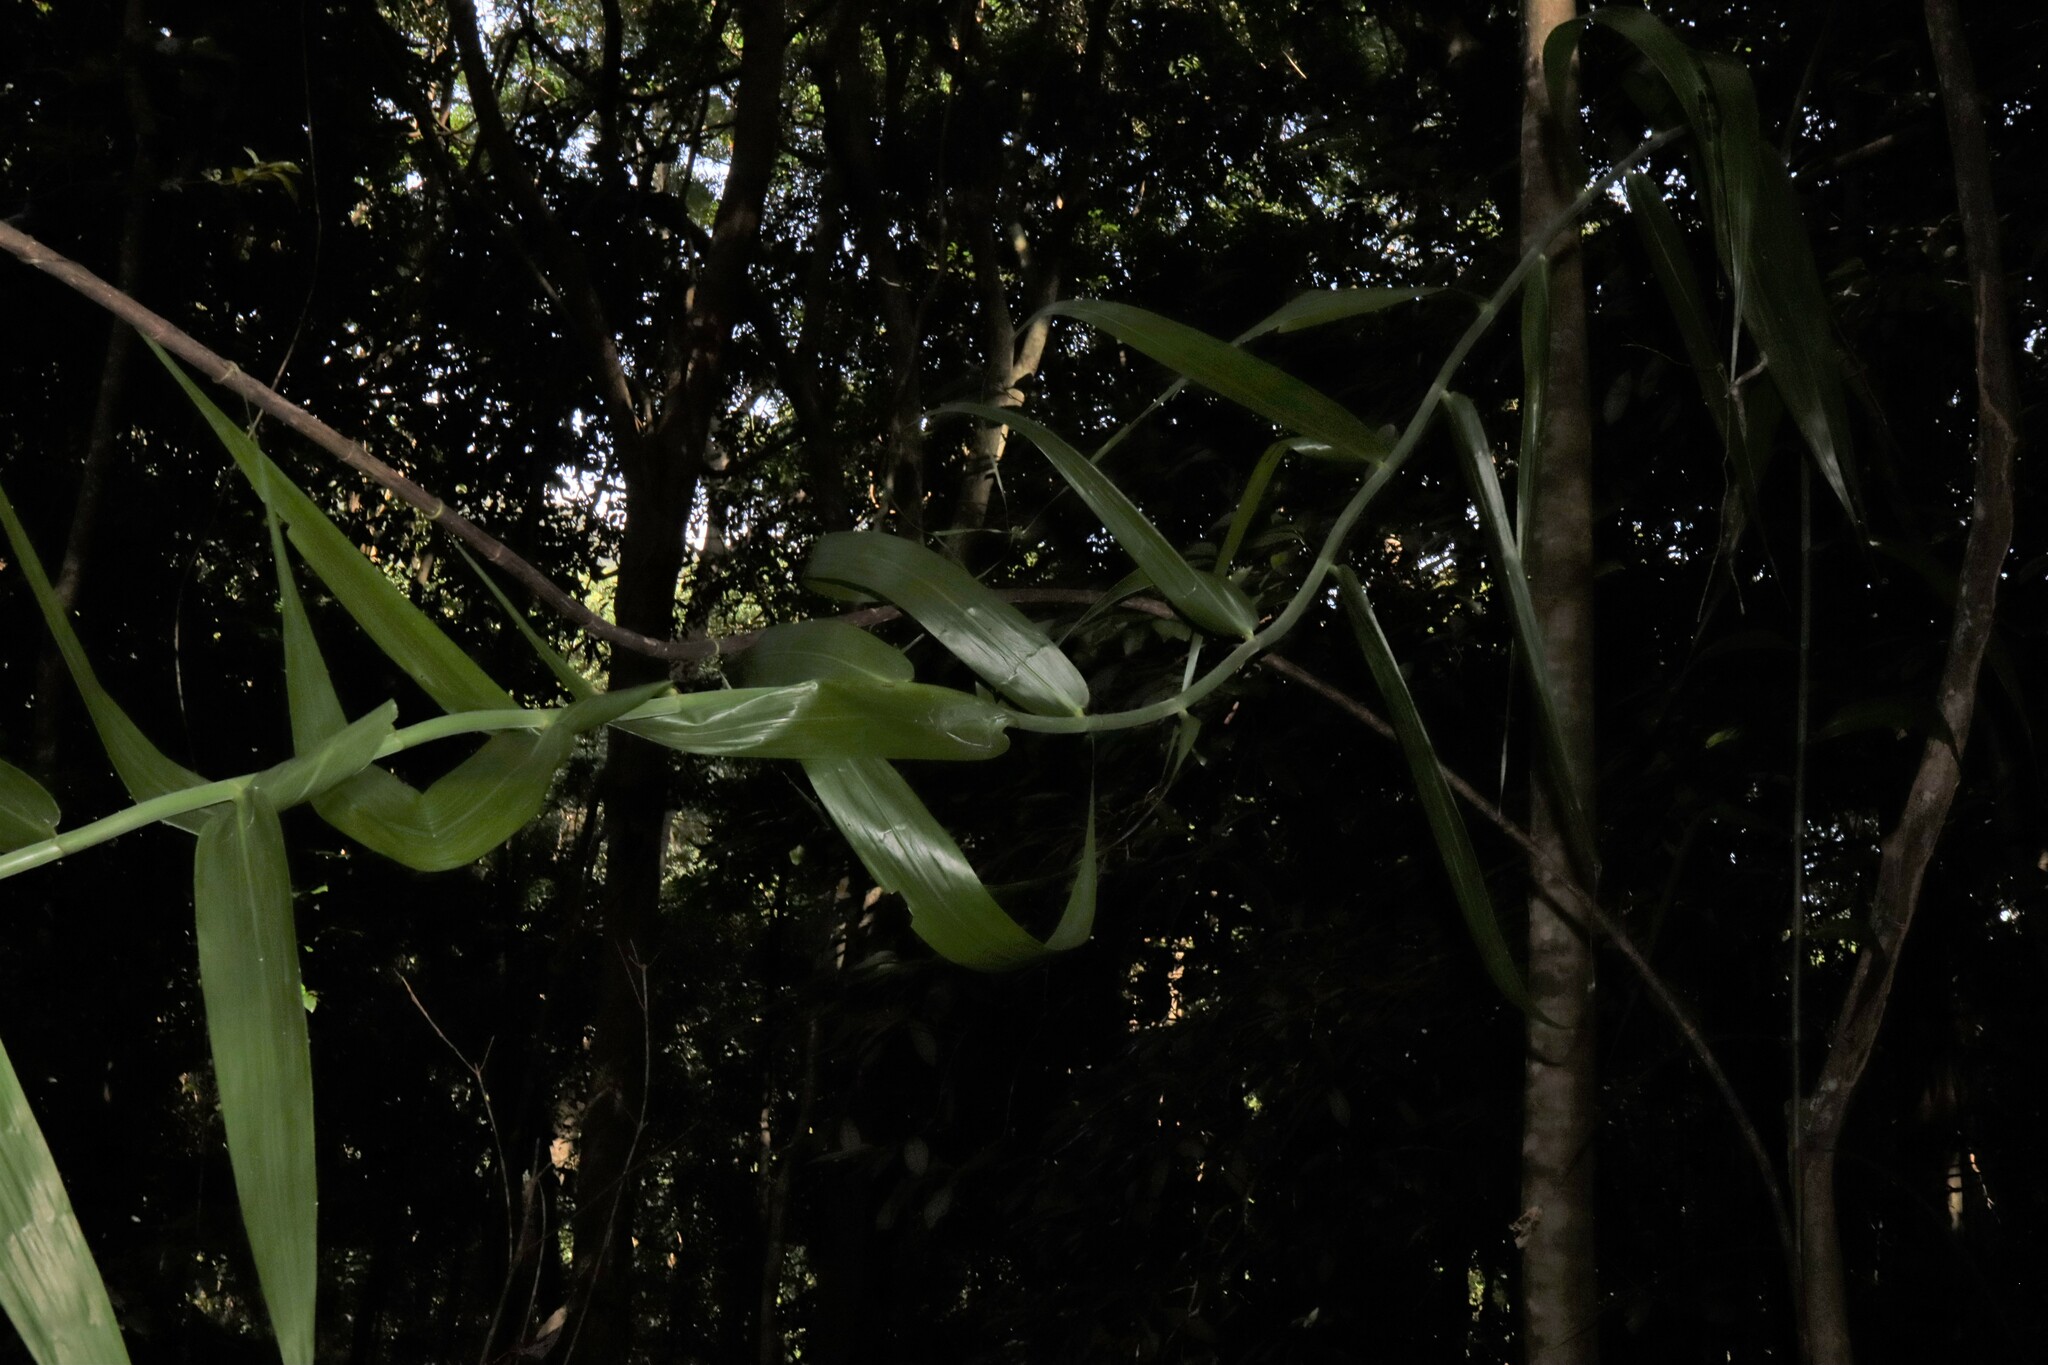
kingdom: Plantae
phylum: Tracheophyta
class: Liliopsida
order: Poales
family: Flagellariaceae
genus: Flagellaria
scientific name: Flagellaria indica
